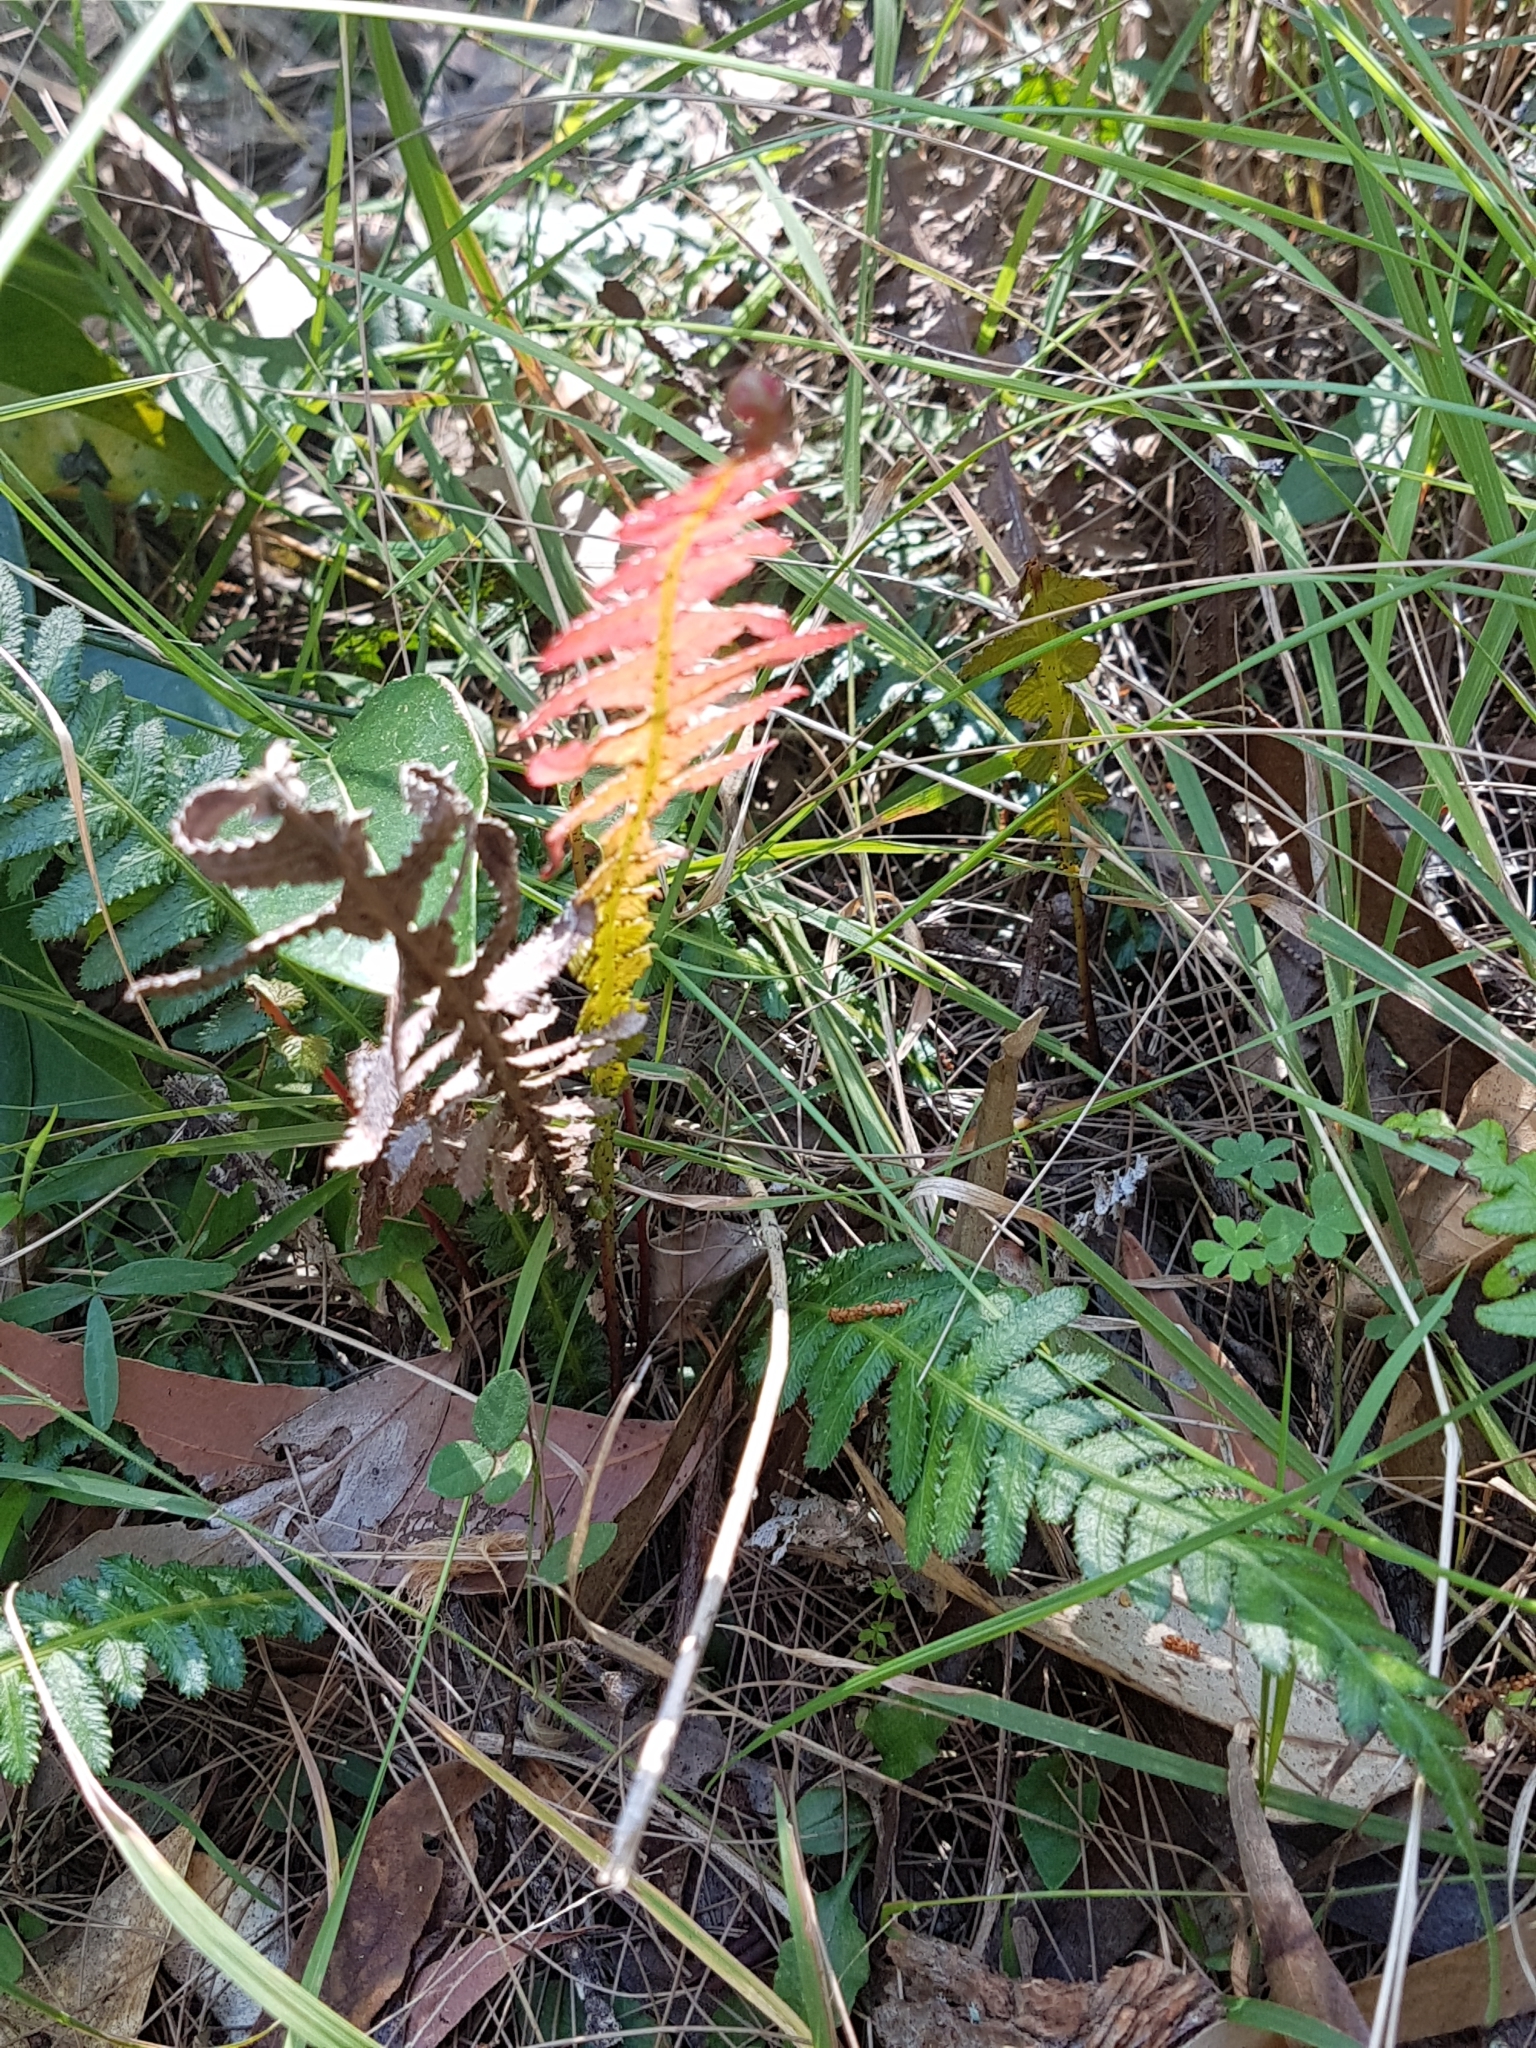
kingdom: Plantae
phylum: Tracheophyta
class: Polypodiopsida
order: Polypodiales
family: Blechnaceae
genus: Doodia
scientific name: Doodia aspera
